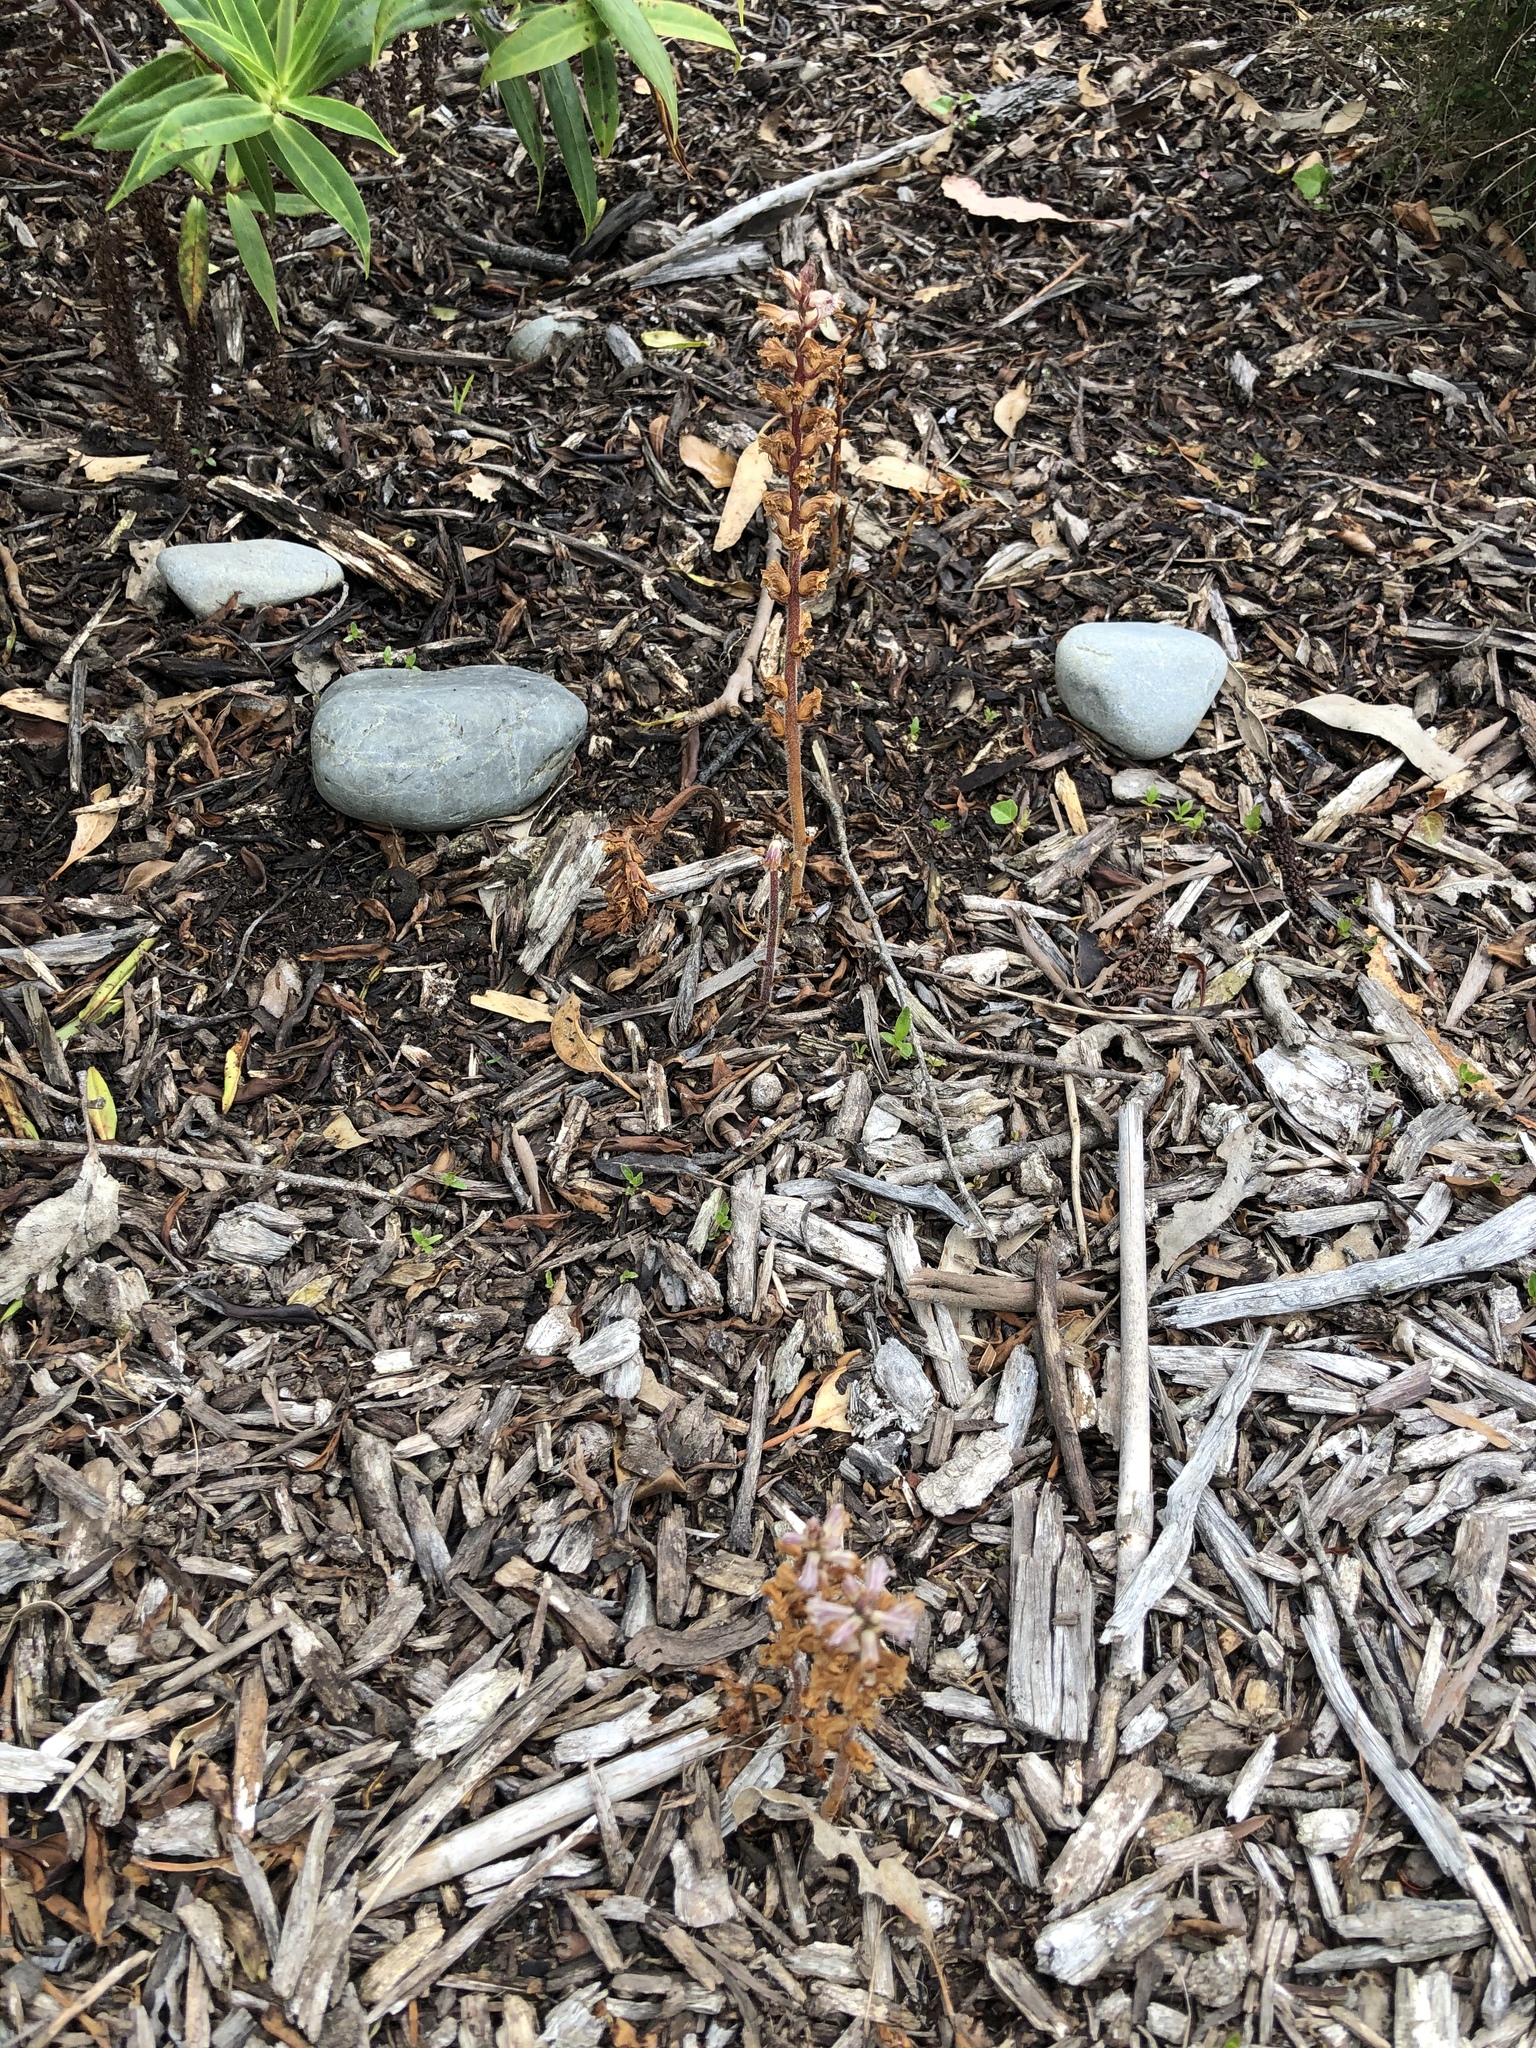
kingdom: Plantae
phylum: Tracheophyta
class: Magnoliopsida
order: Lamiales
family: Orobanchaceae
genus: Orobanche
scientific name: Orobanche minor
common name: Common broomrape
